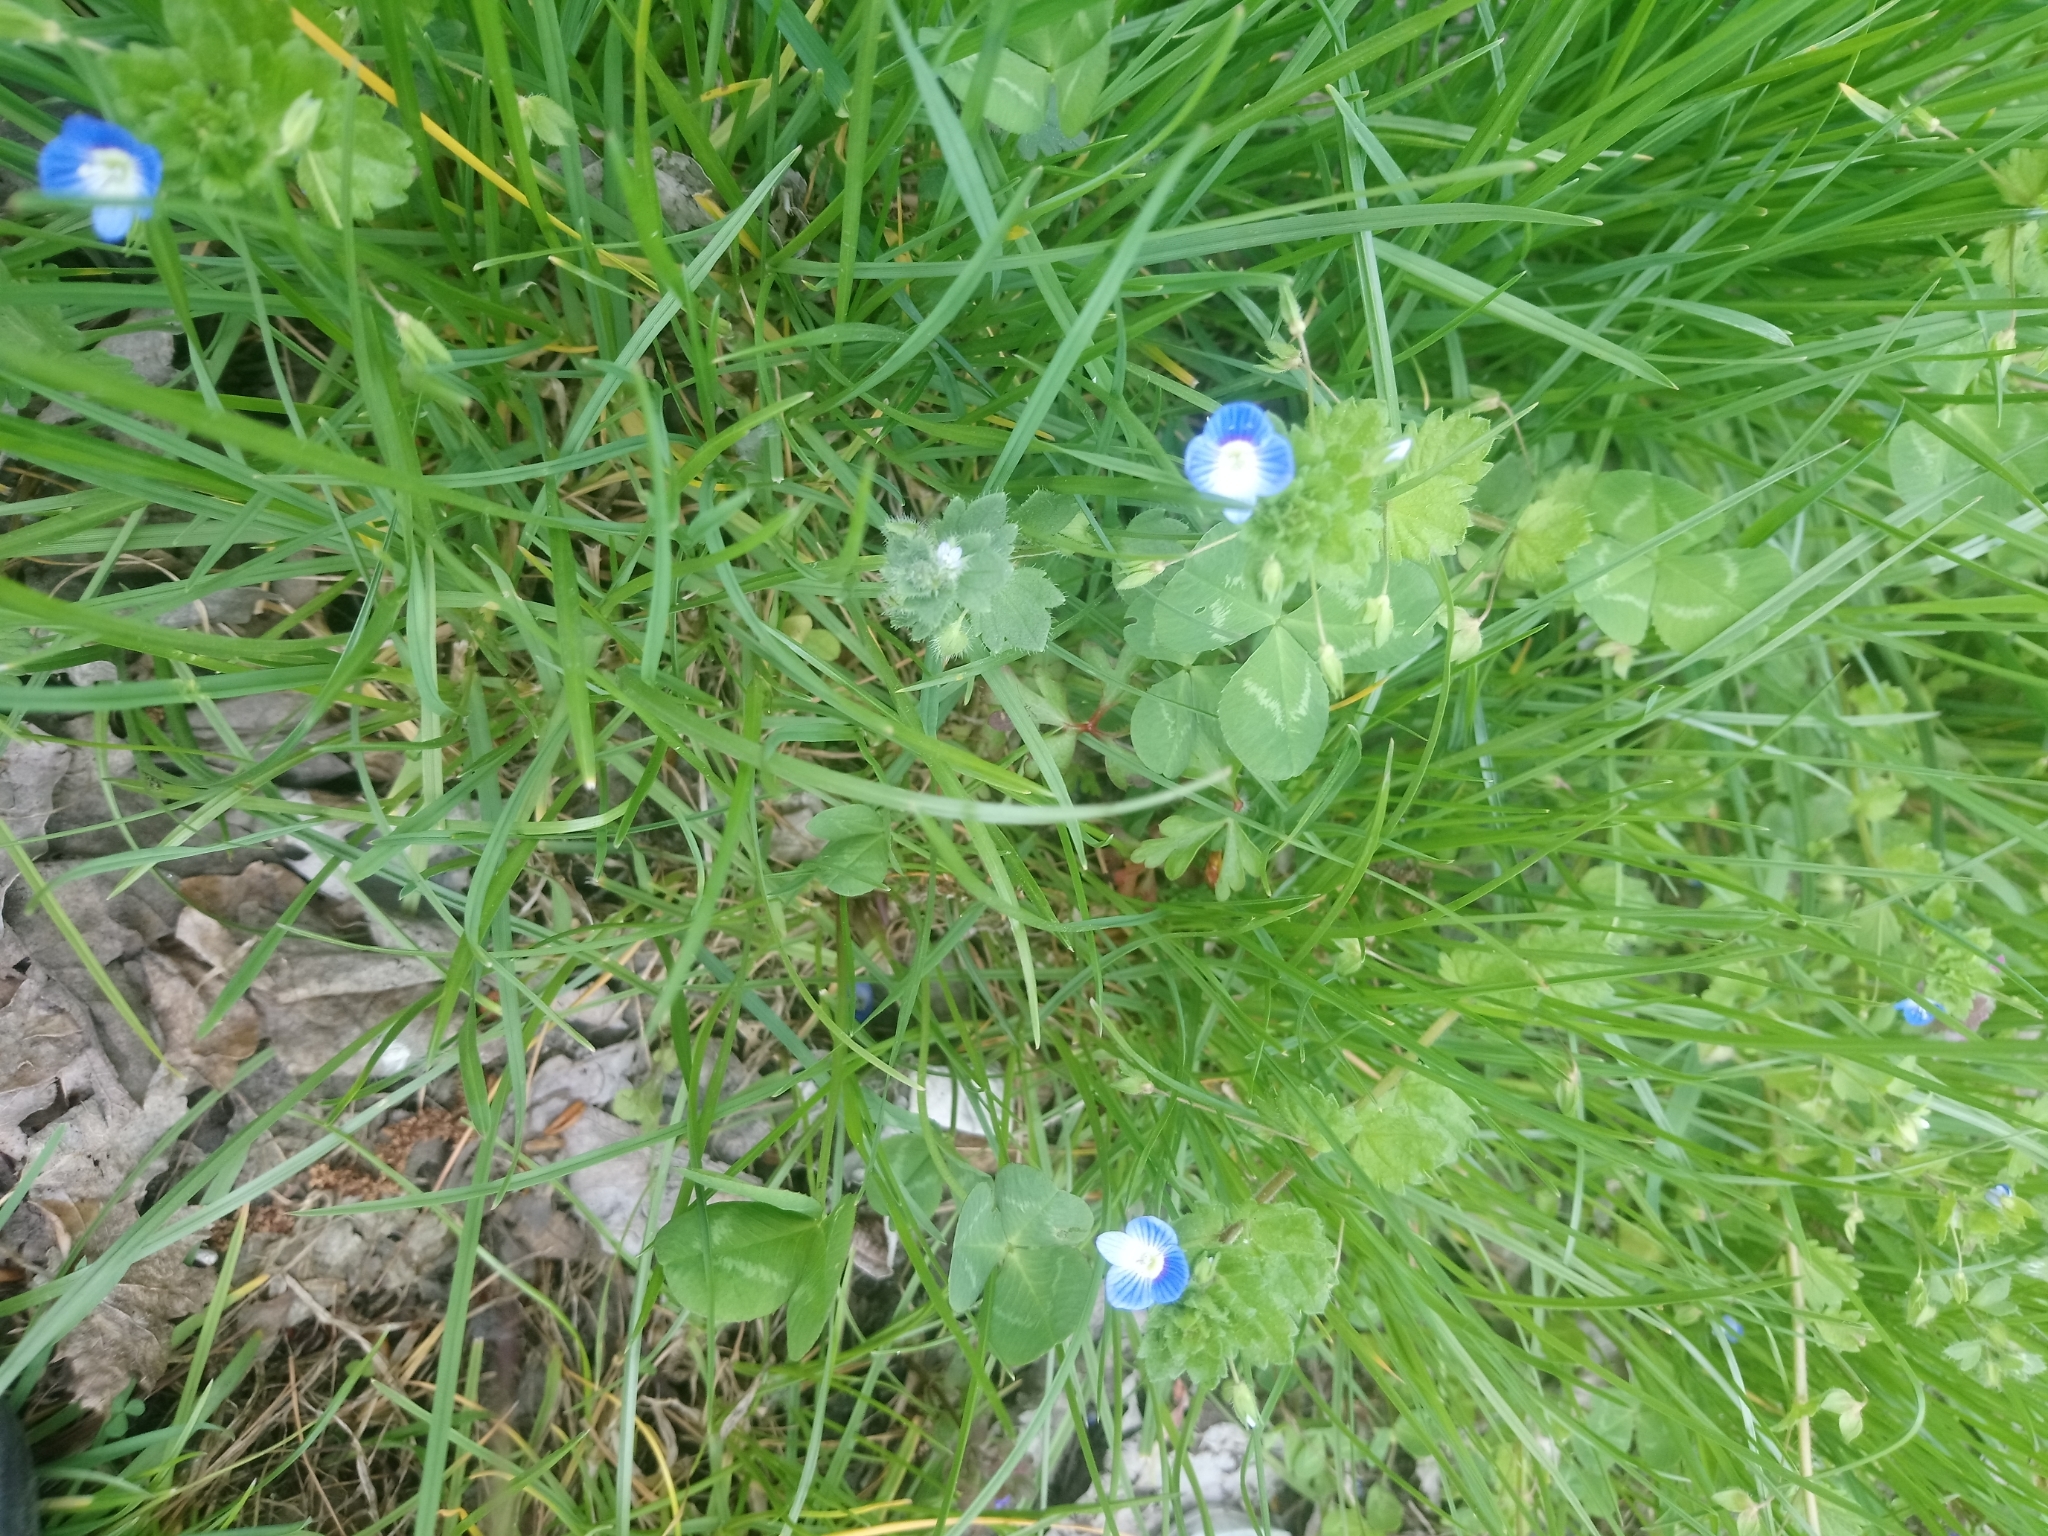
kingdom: Plantae
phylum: Tracheophyta
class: Magnoliopsida
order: Lamiales
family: Plantaginaceae
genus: Veronica
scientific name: Veronica persica
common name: Common field-speedwell
